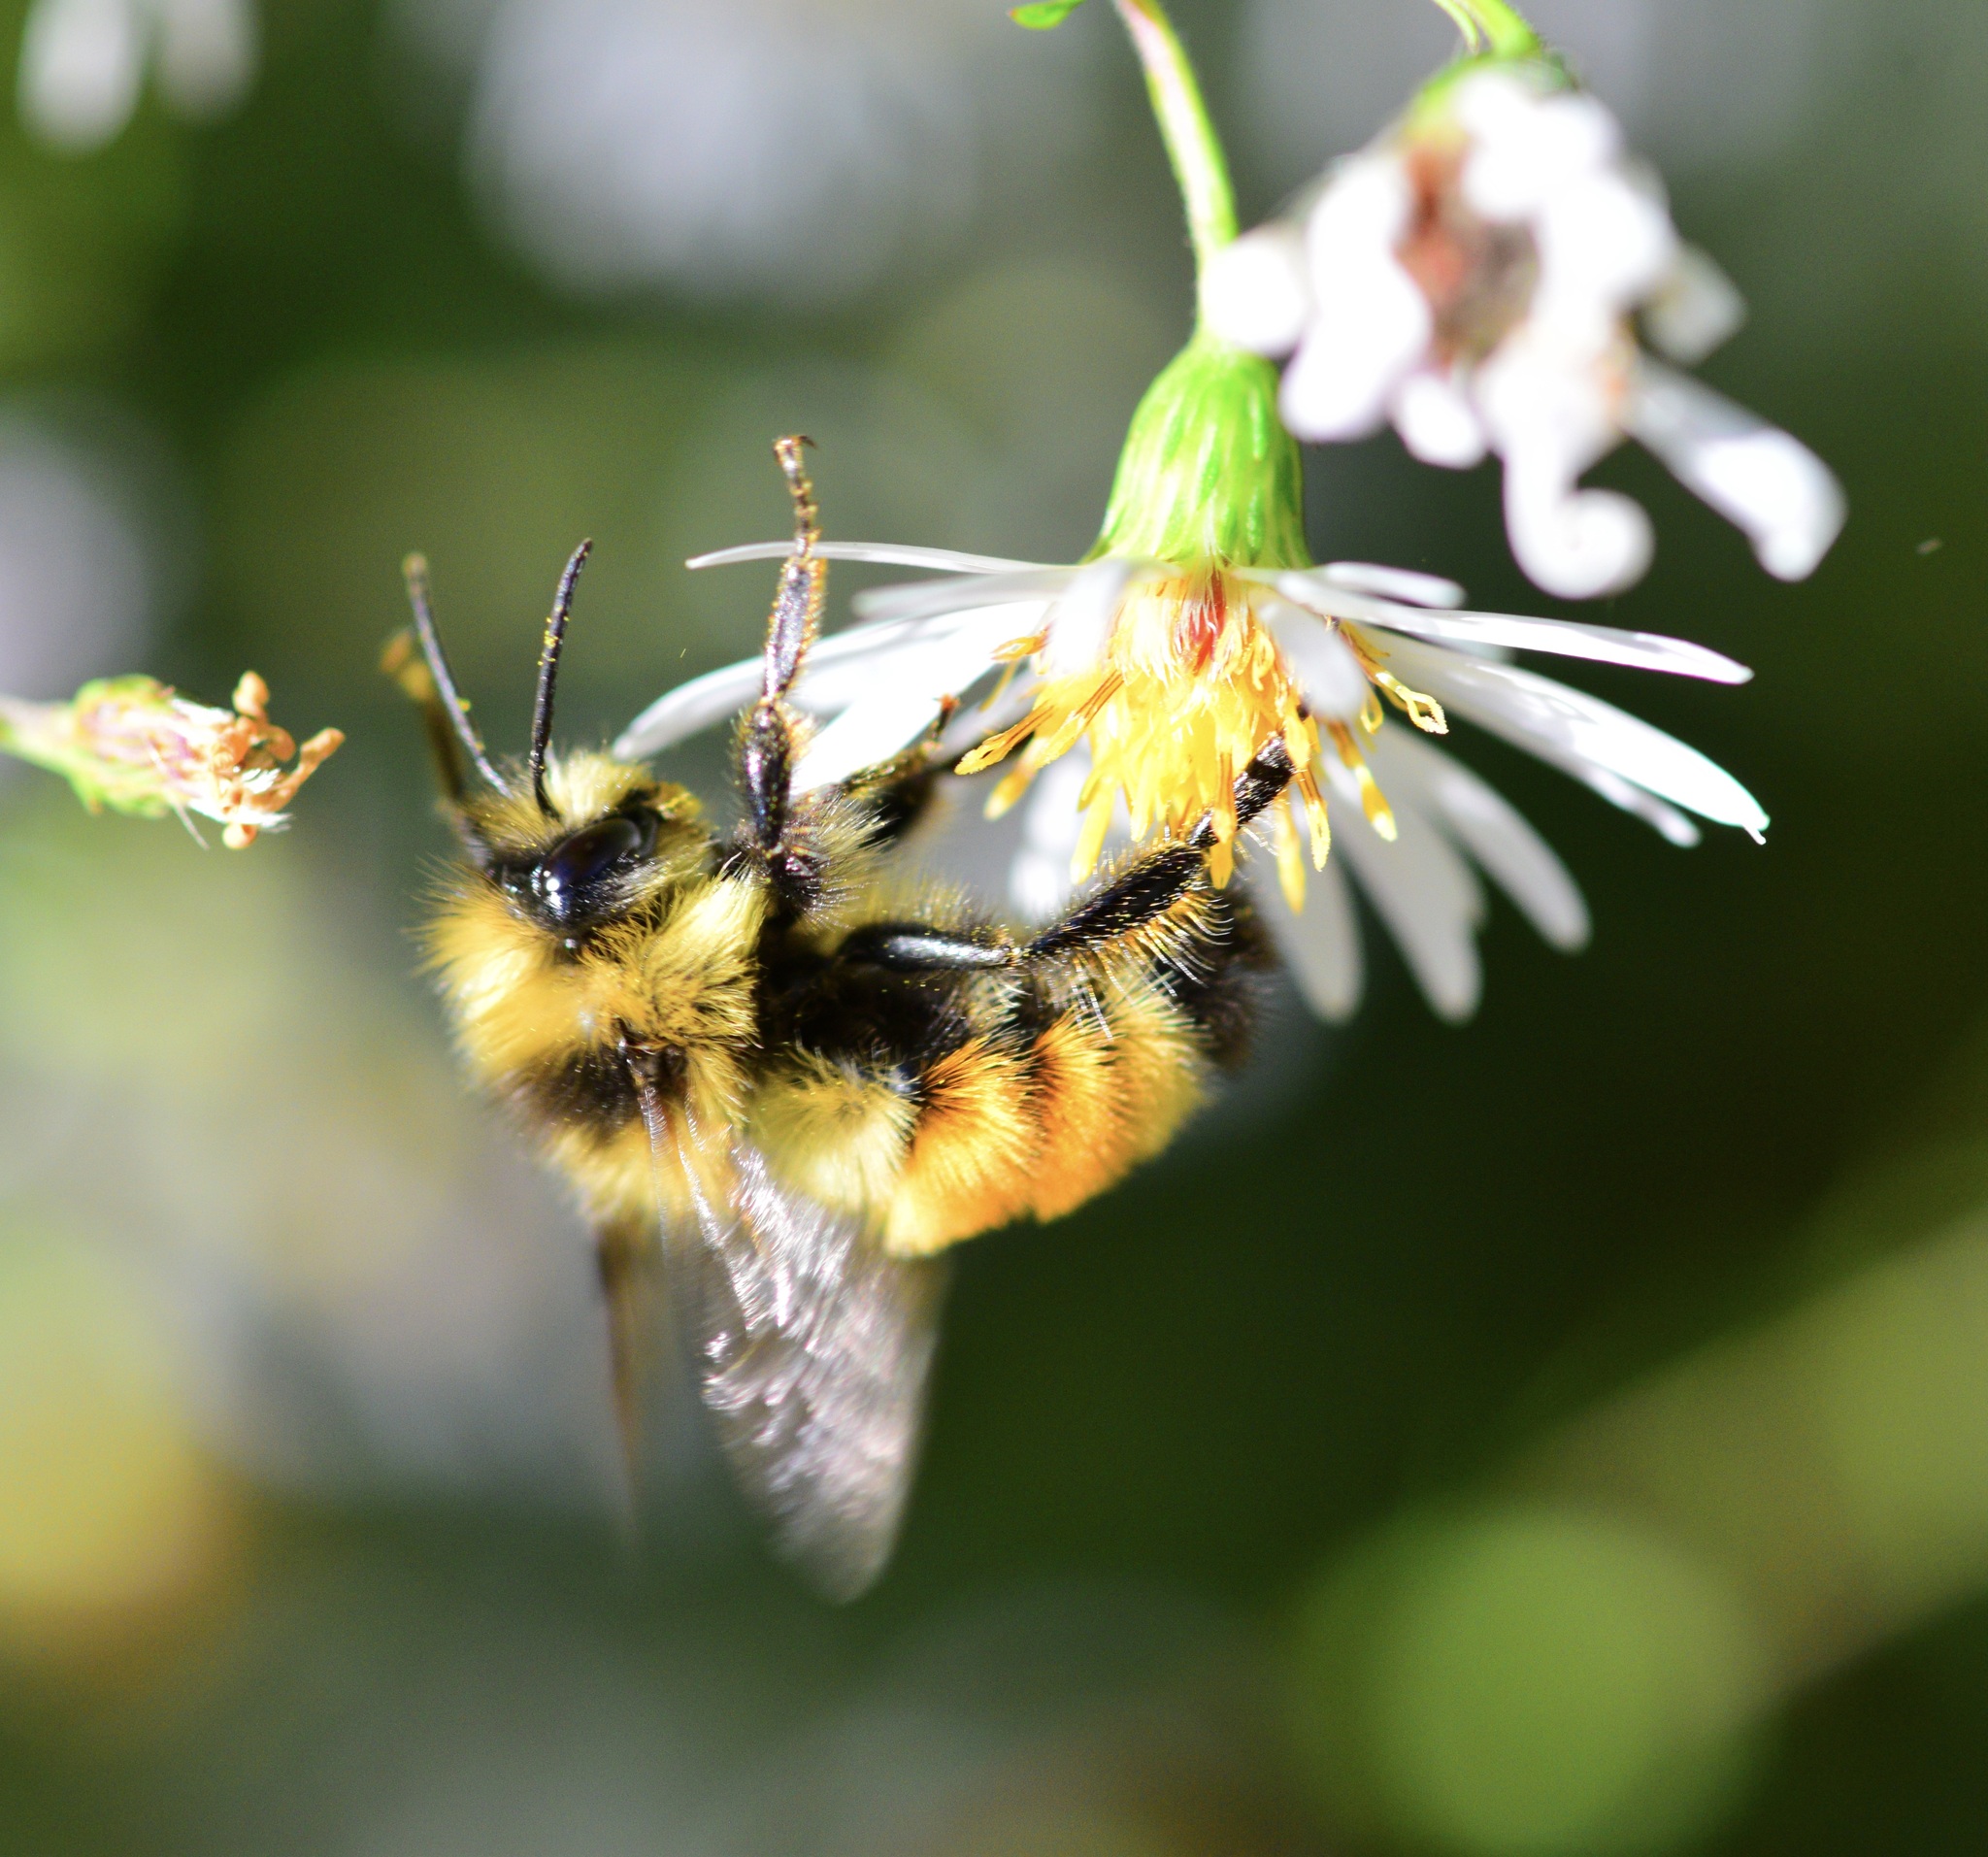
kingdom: Animalia
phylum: Arthropoda
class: Insecta
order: Hymenoptera
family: Apidae
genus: Bombus
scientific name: Bombus ternarius
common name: Tri-colored bumble bee
